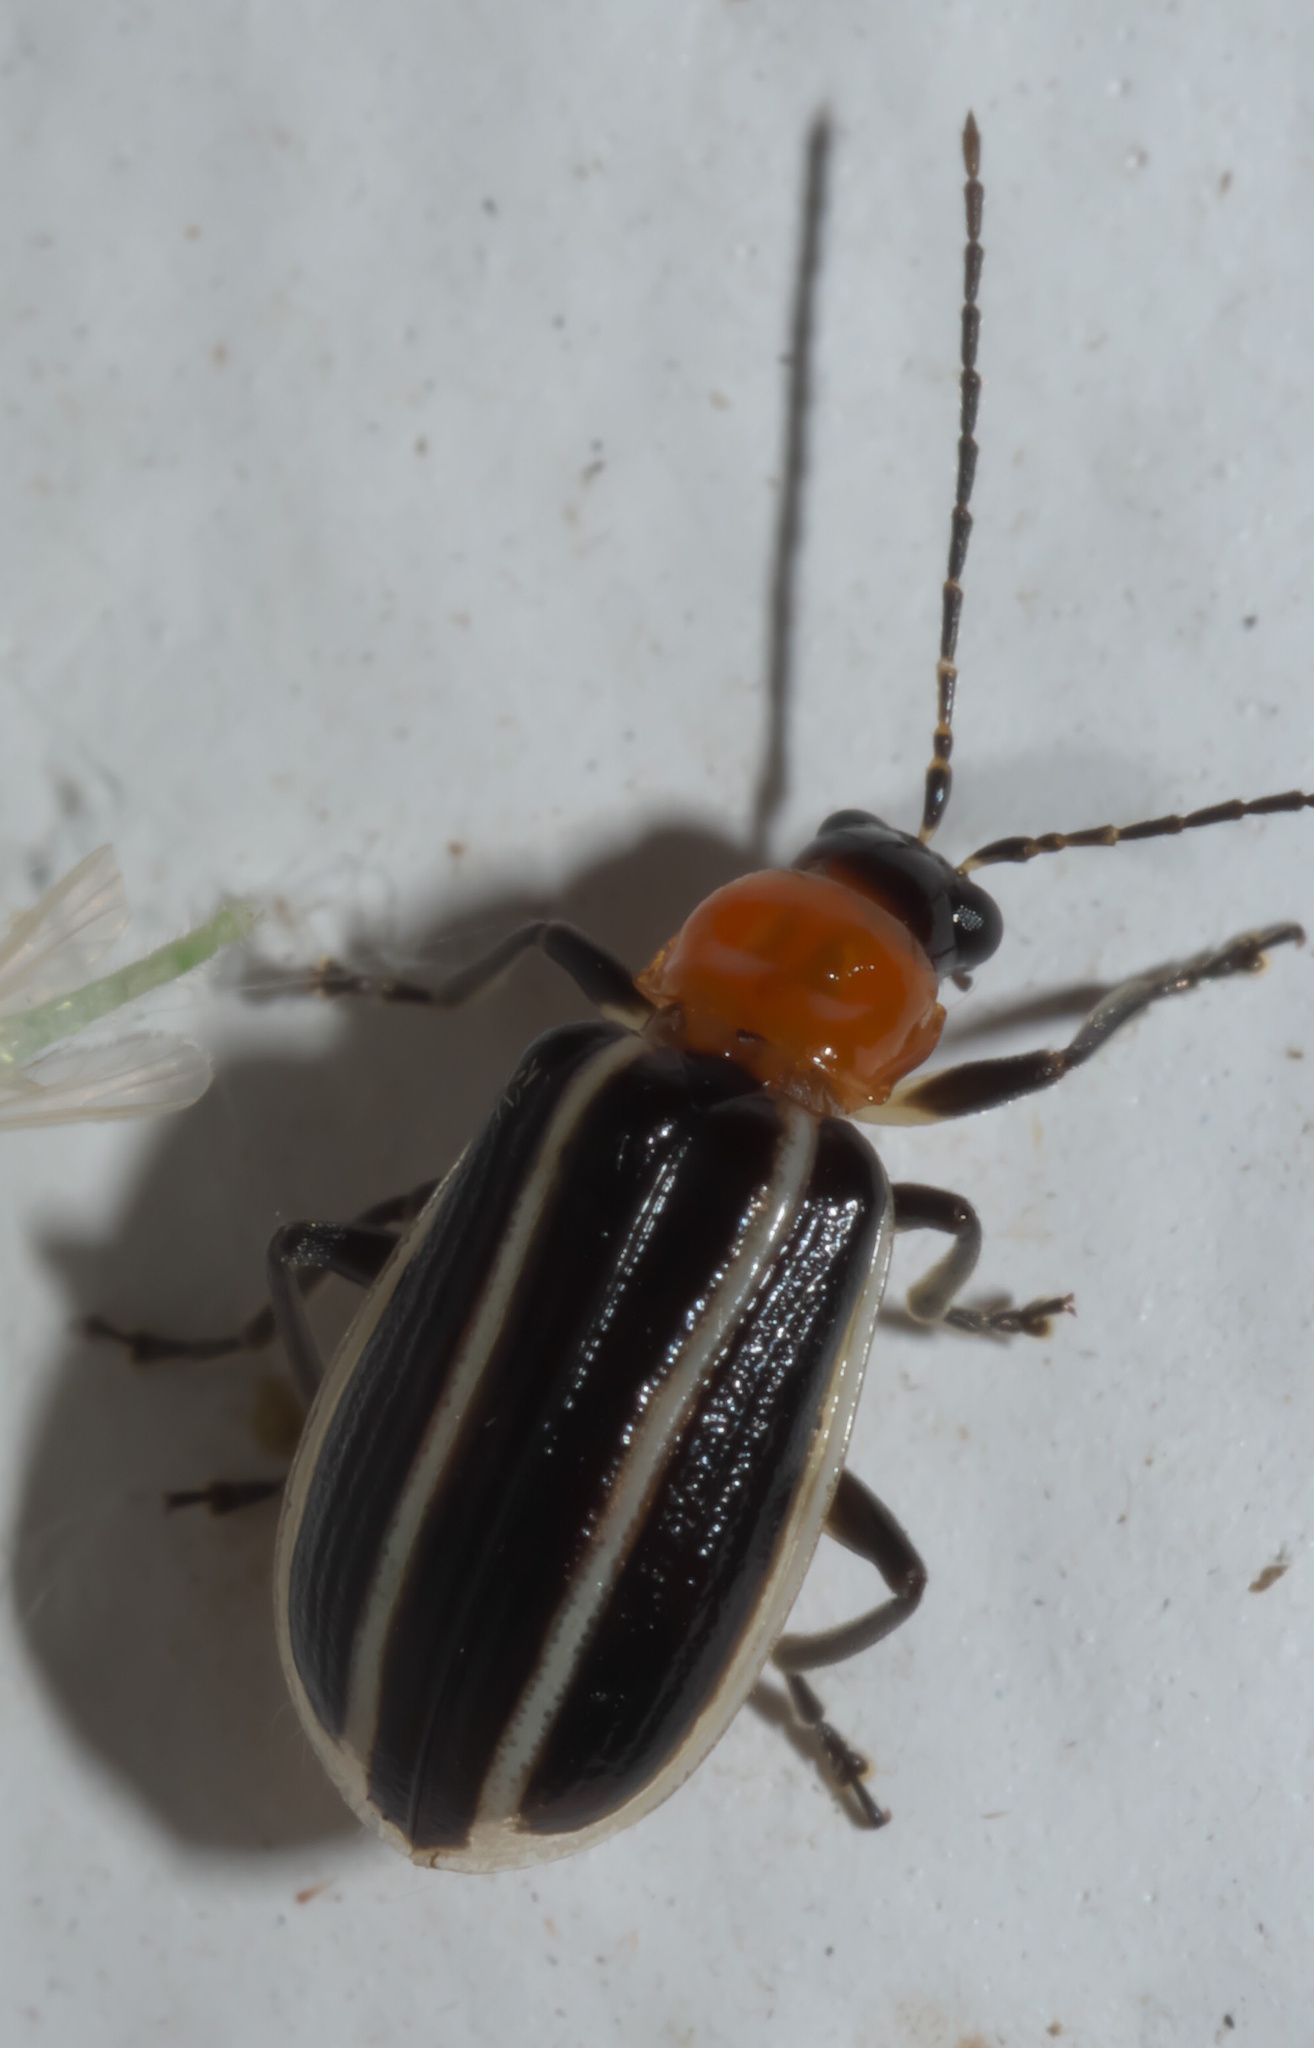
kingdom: Animalia
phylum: Arthropoda
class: Insecta
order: Coleoptera
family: Chrysomelidae
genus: Acalymma
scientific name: Acalymma vinctum
